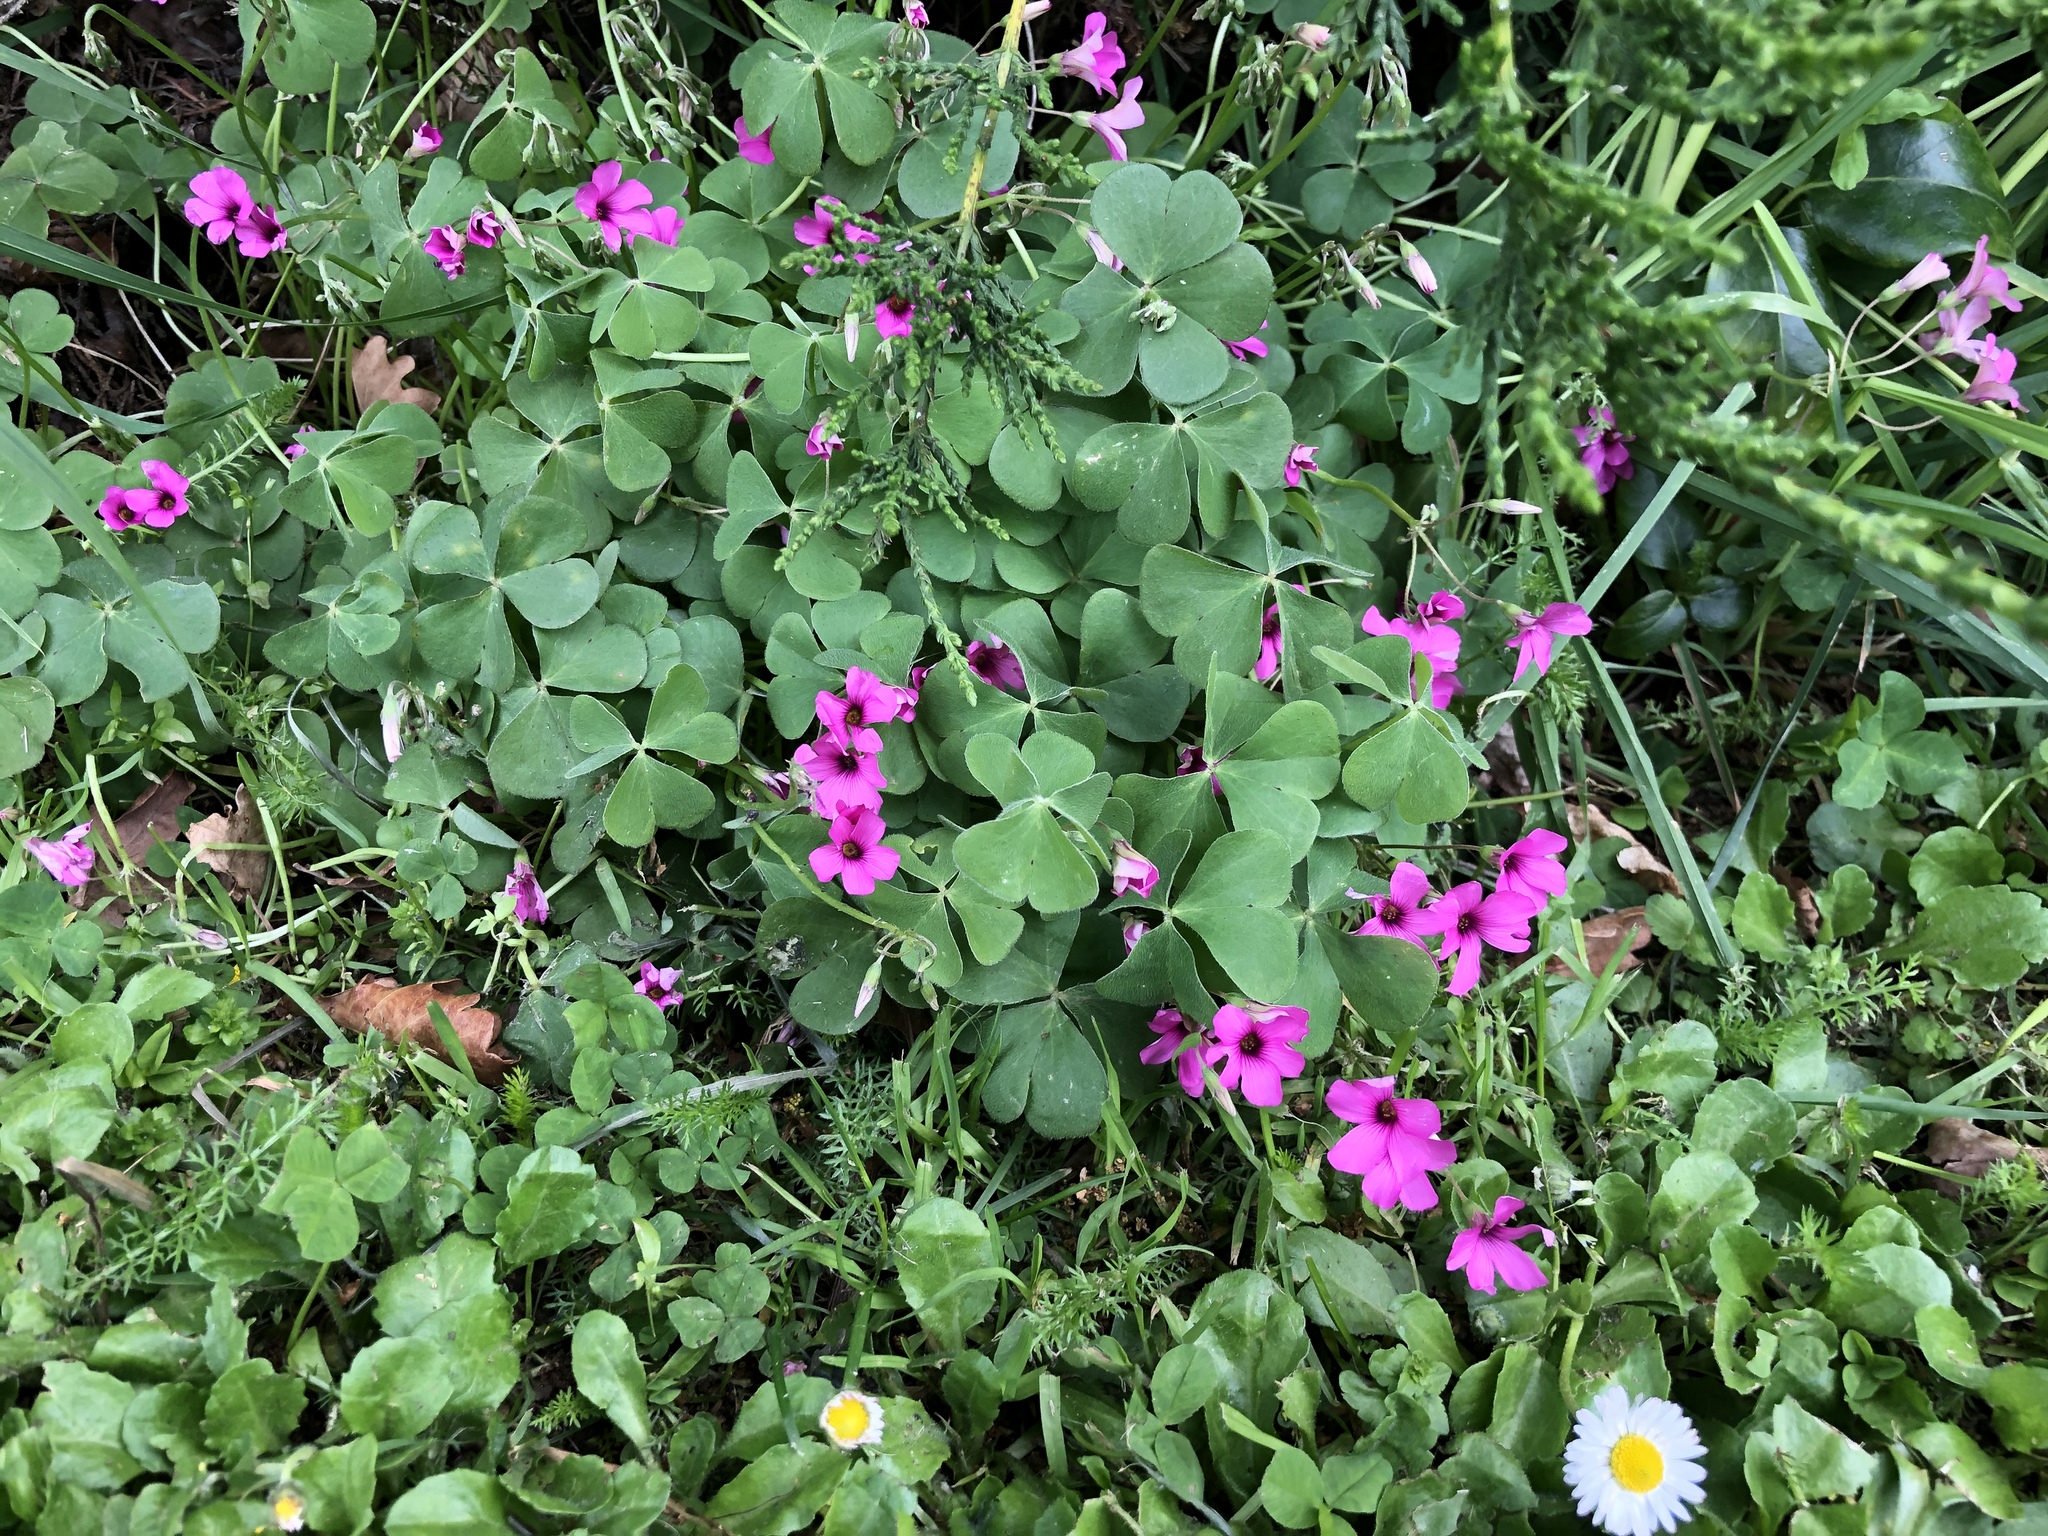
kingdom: Plantae
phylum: Tracheophyta
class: Magnoliopsida
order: Oxalidales
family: Oxalidaceae
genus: Oxalis
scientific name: Oxalis articulata
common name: Pink-sorrel
